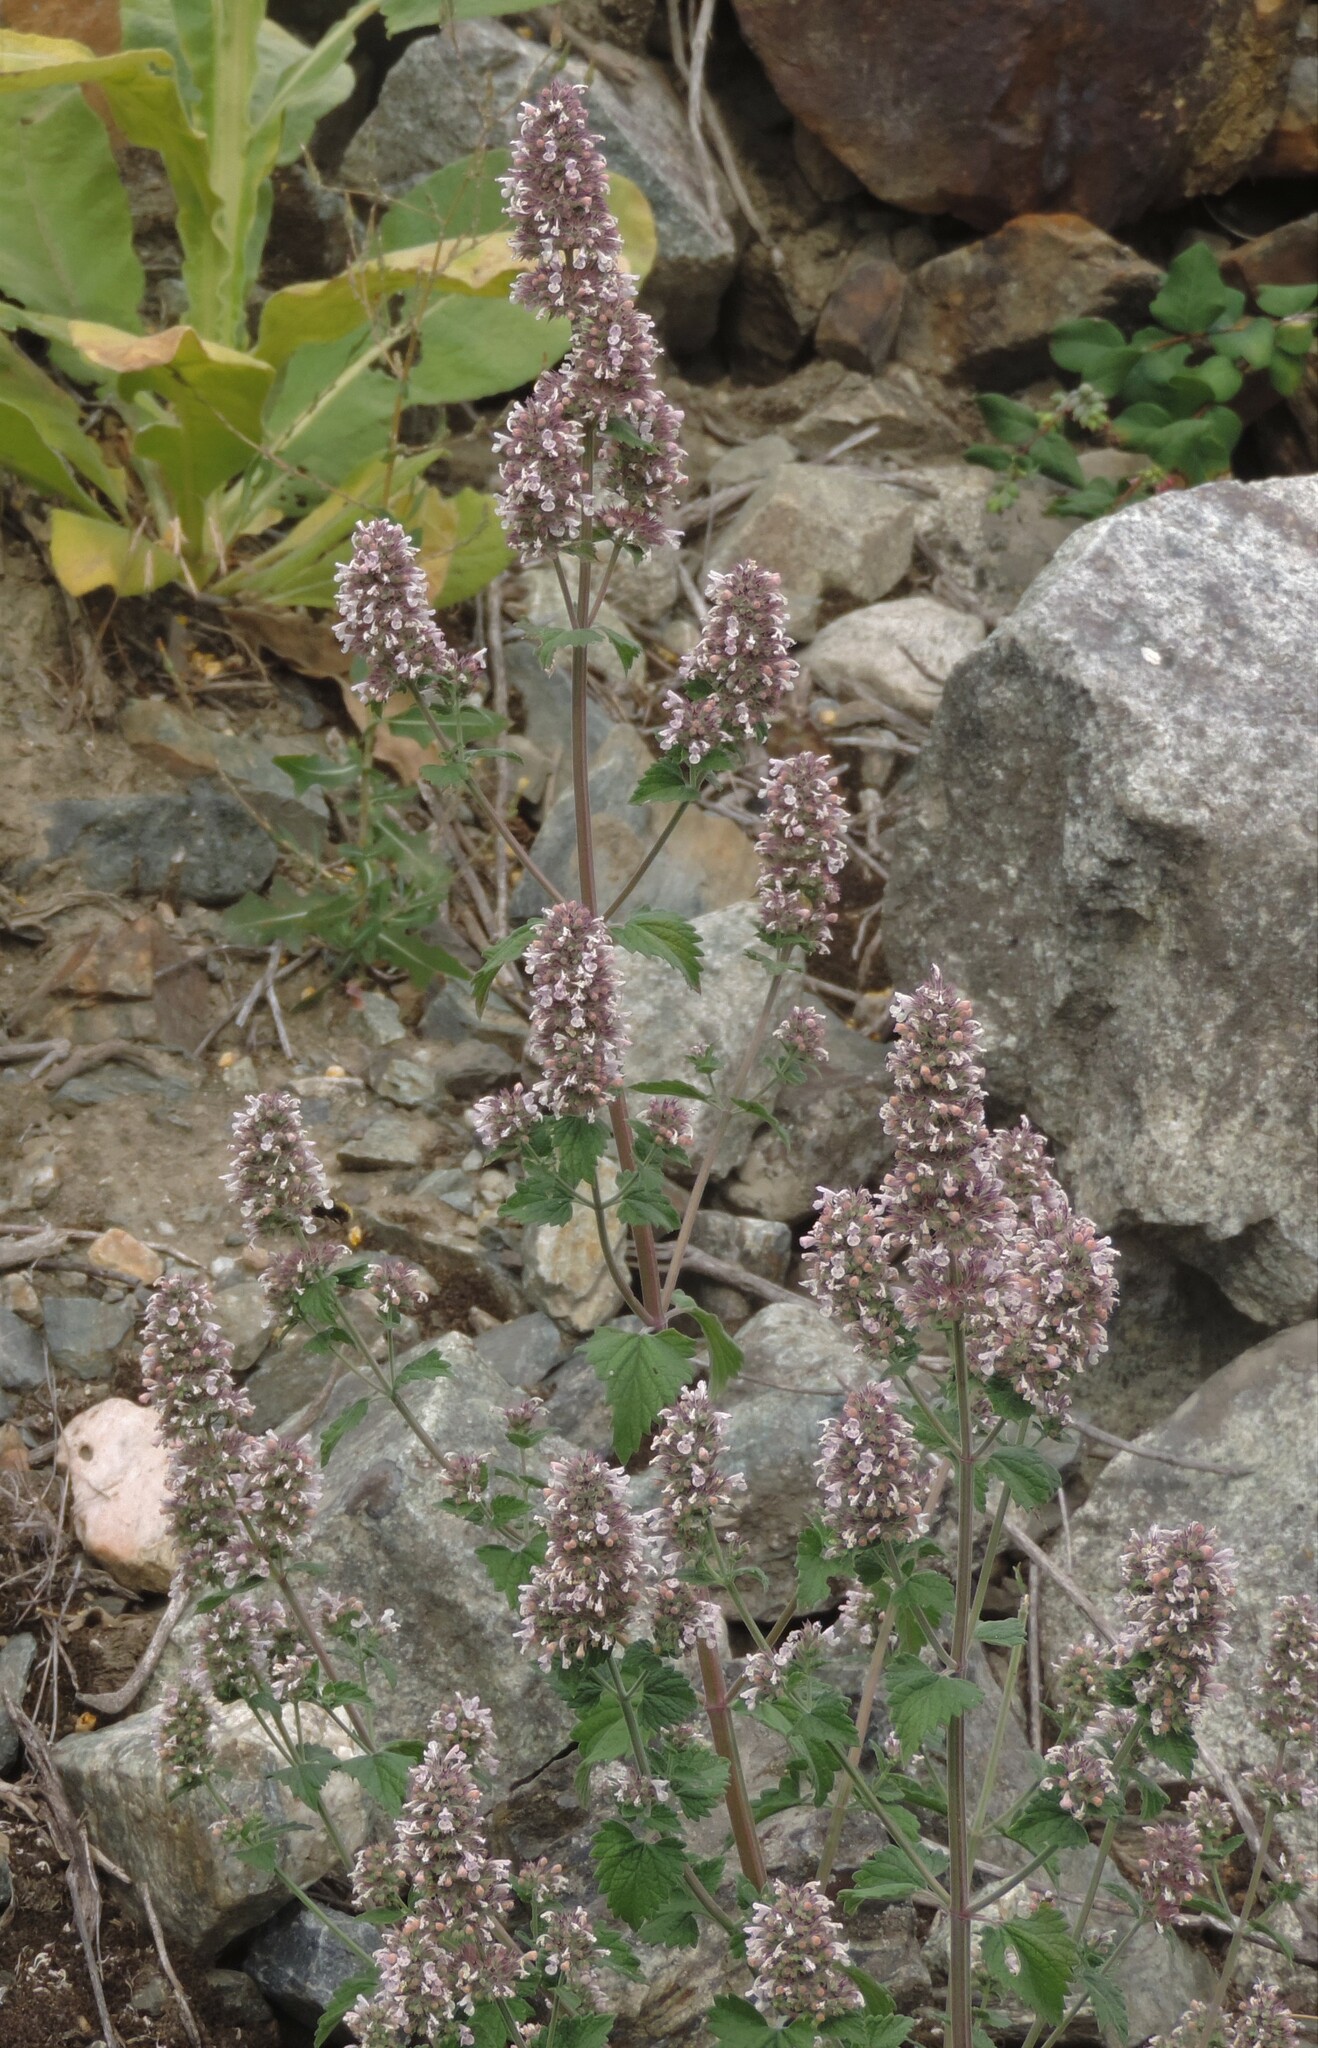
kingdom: Plantae
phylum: Tracheophyta
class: Magnoliopsida
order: Lamiales
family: Lamiaceae
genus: Agastache
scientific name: Agastache urticifolia
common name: Horsemint giant hyssop
